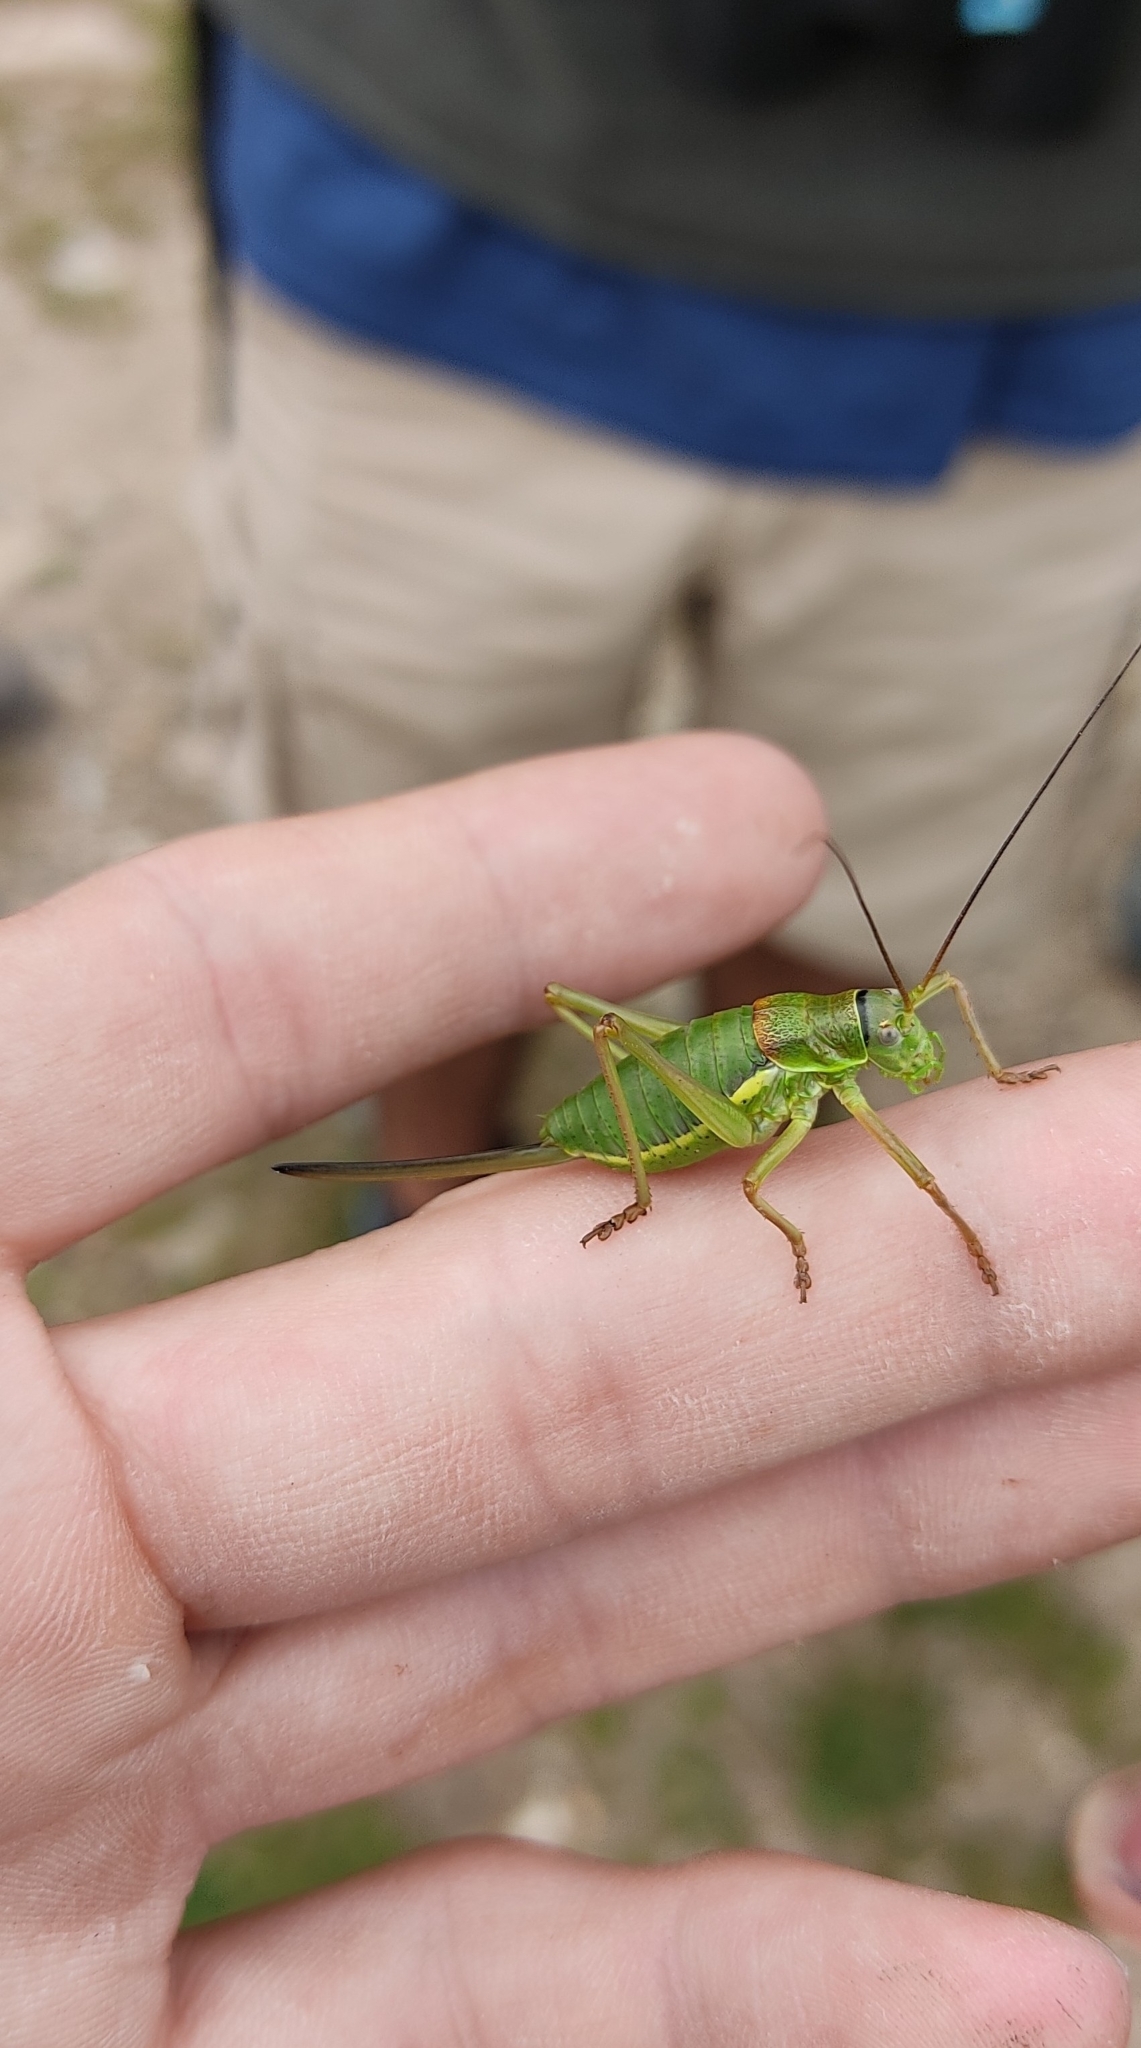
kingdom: Animalia
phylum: Arthropoda
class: Insecta
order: Orthoptera
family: Tettigoniidae
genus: Ephippiger
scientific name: Ephippiger diurnus
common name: Western saddle bush-cricket
